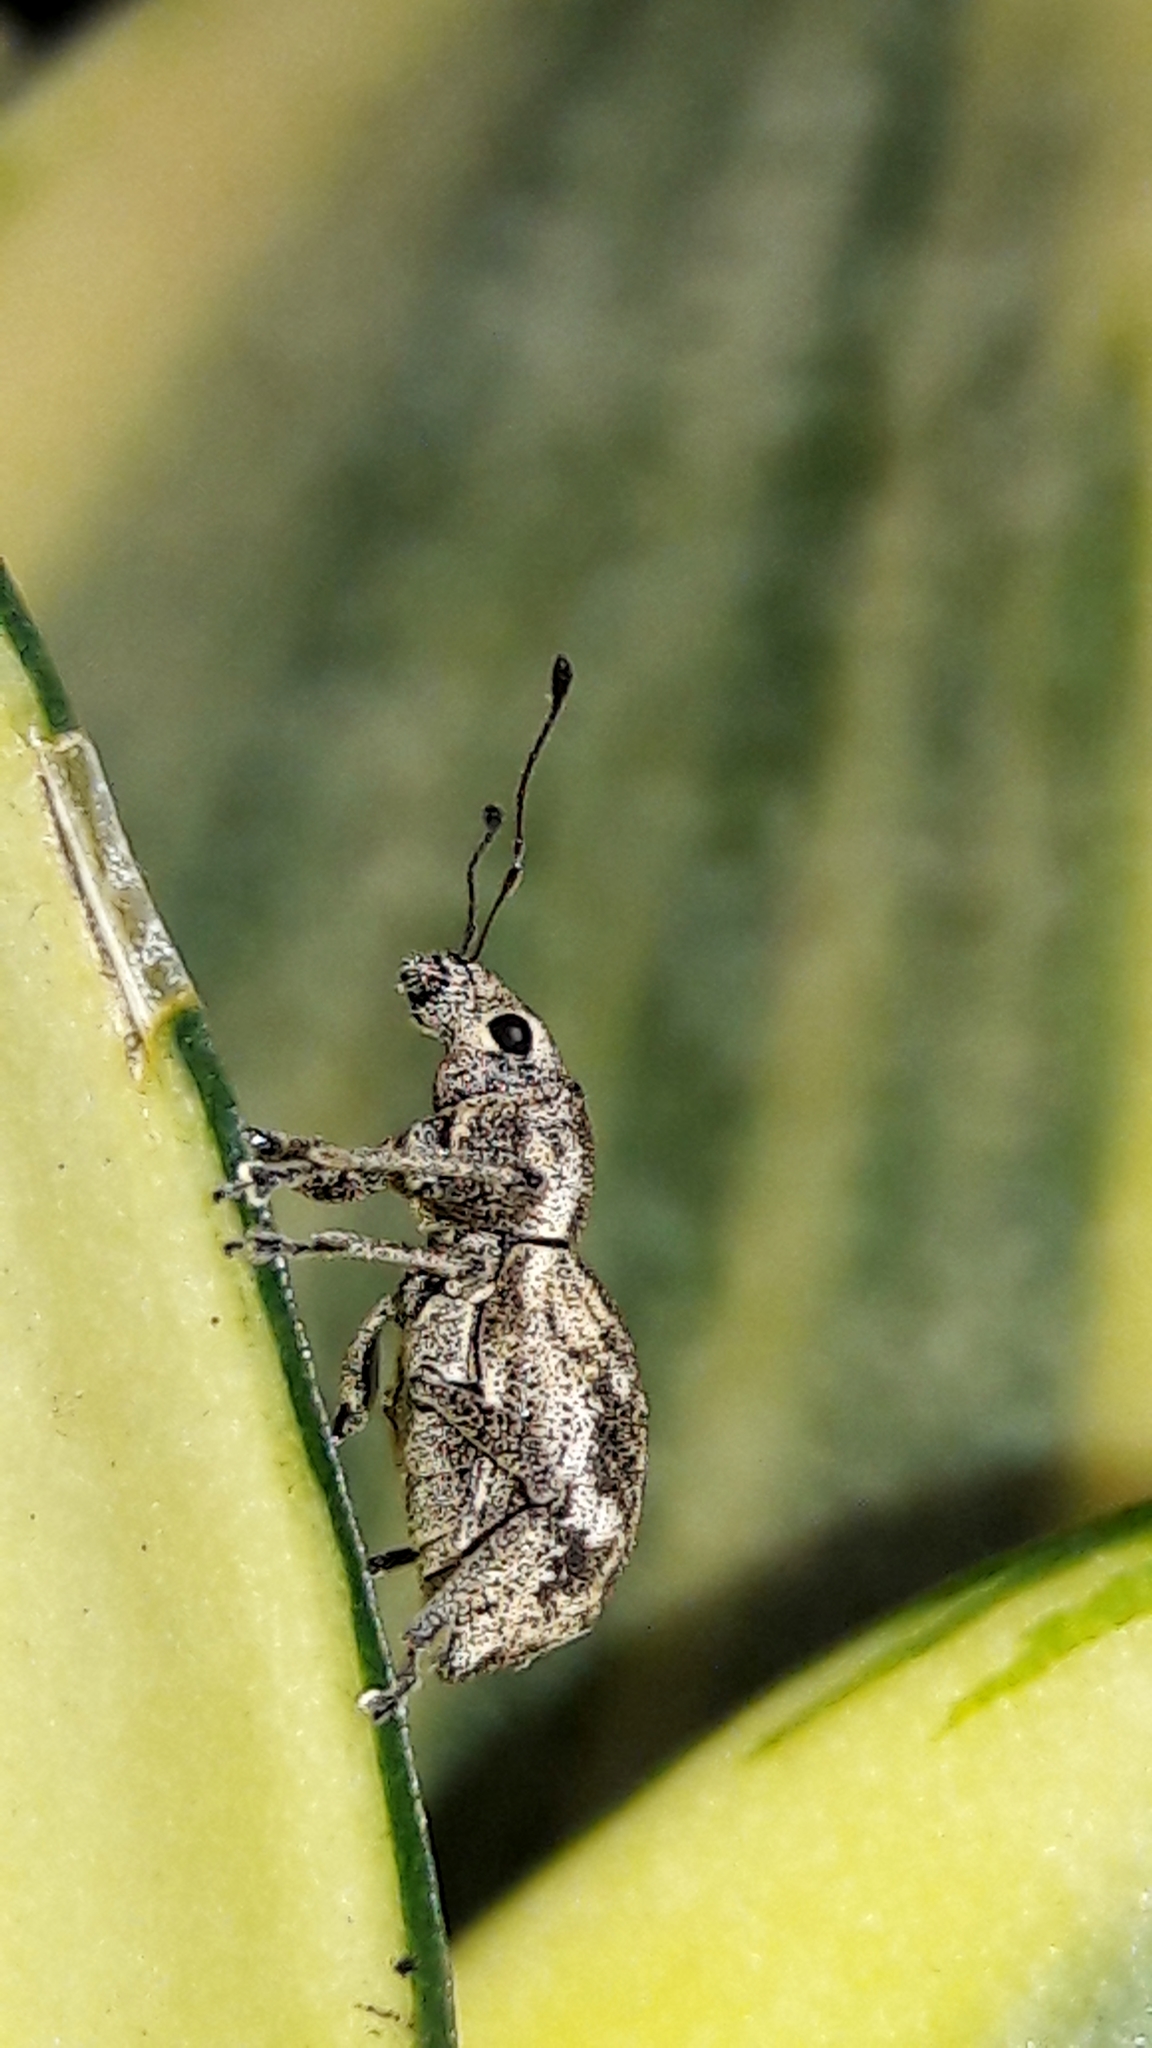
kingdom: Animalia
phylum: Arthropoda
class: Insecta
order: Coleoptera
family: Curculionidae
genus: Parapantomorus
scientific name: Parapantomorus fluctuosus
